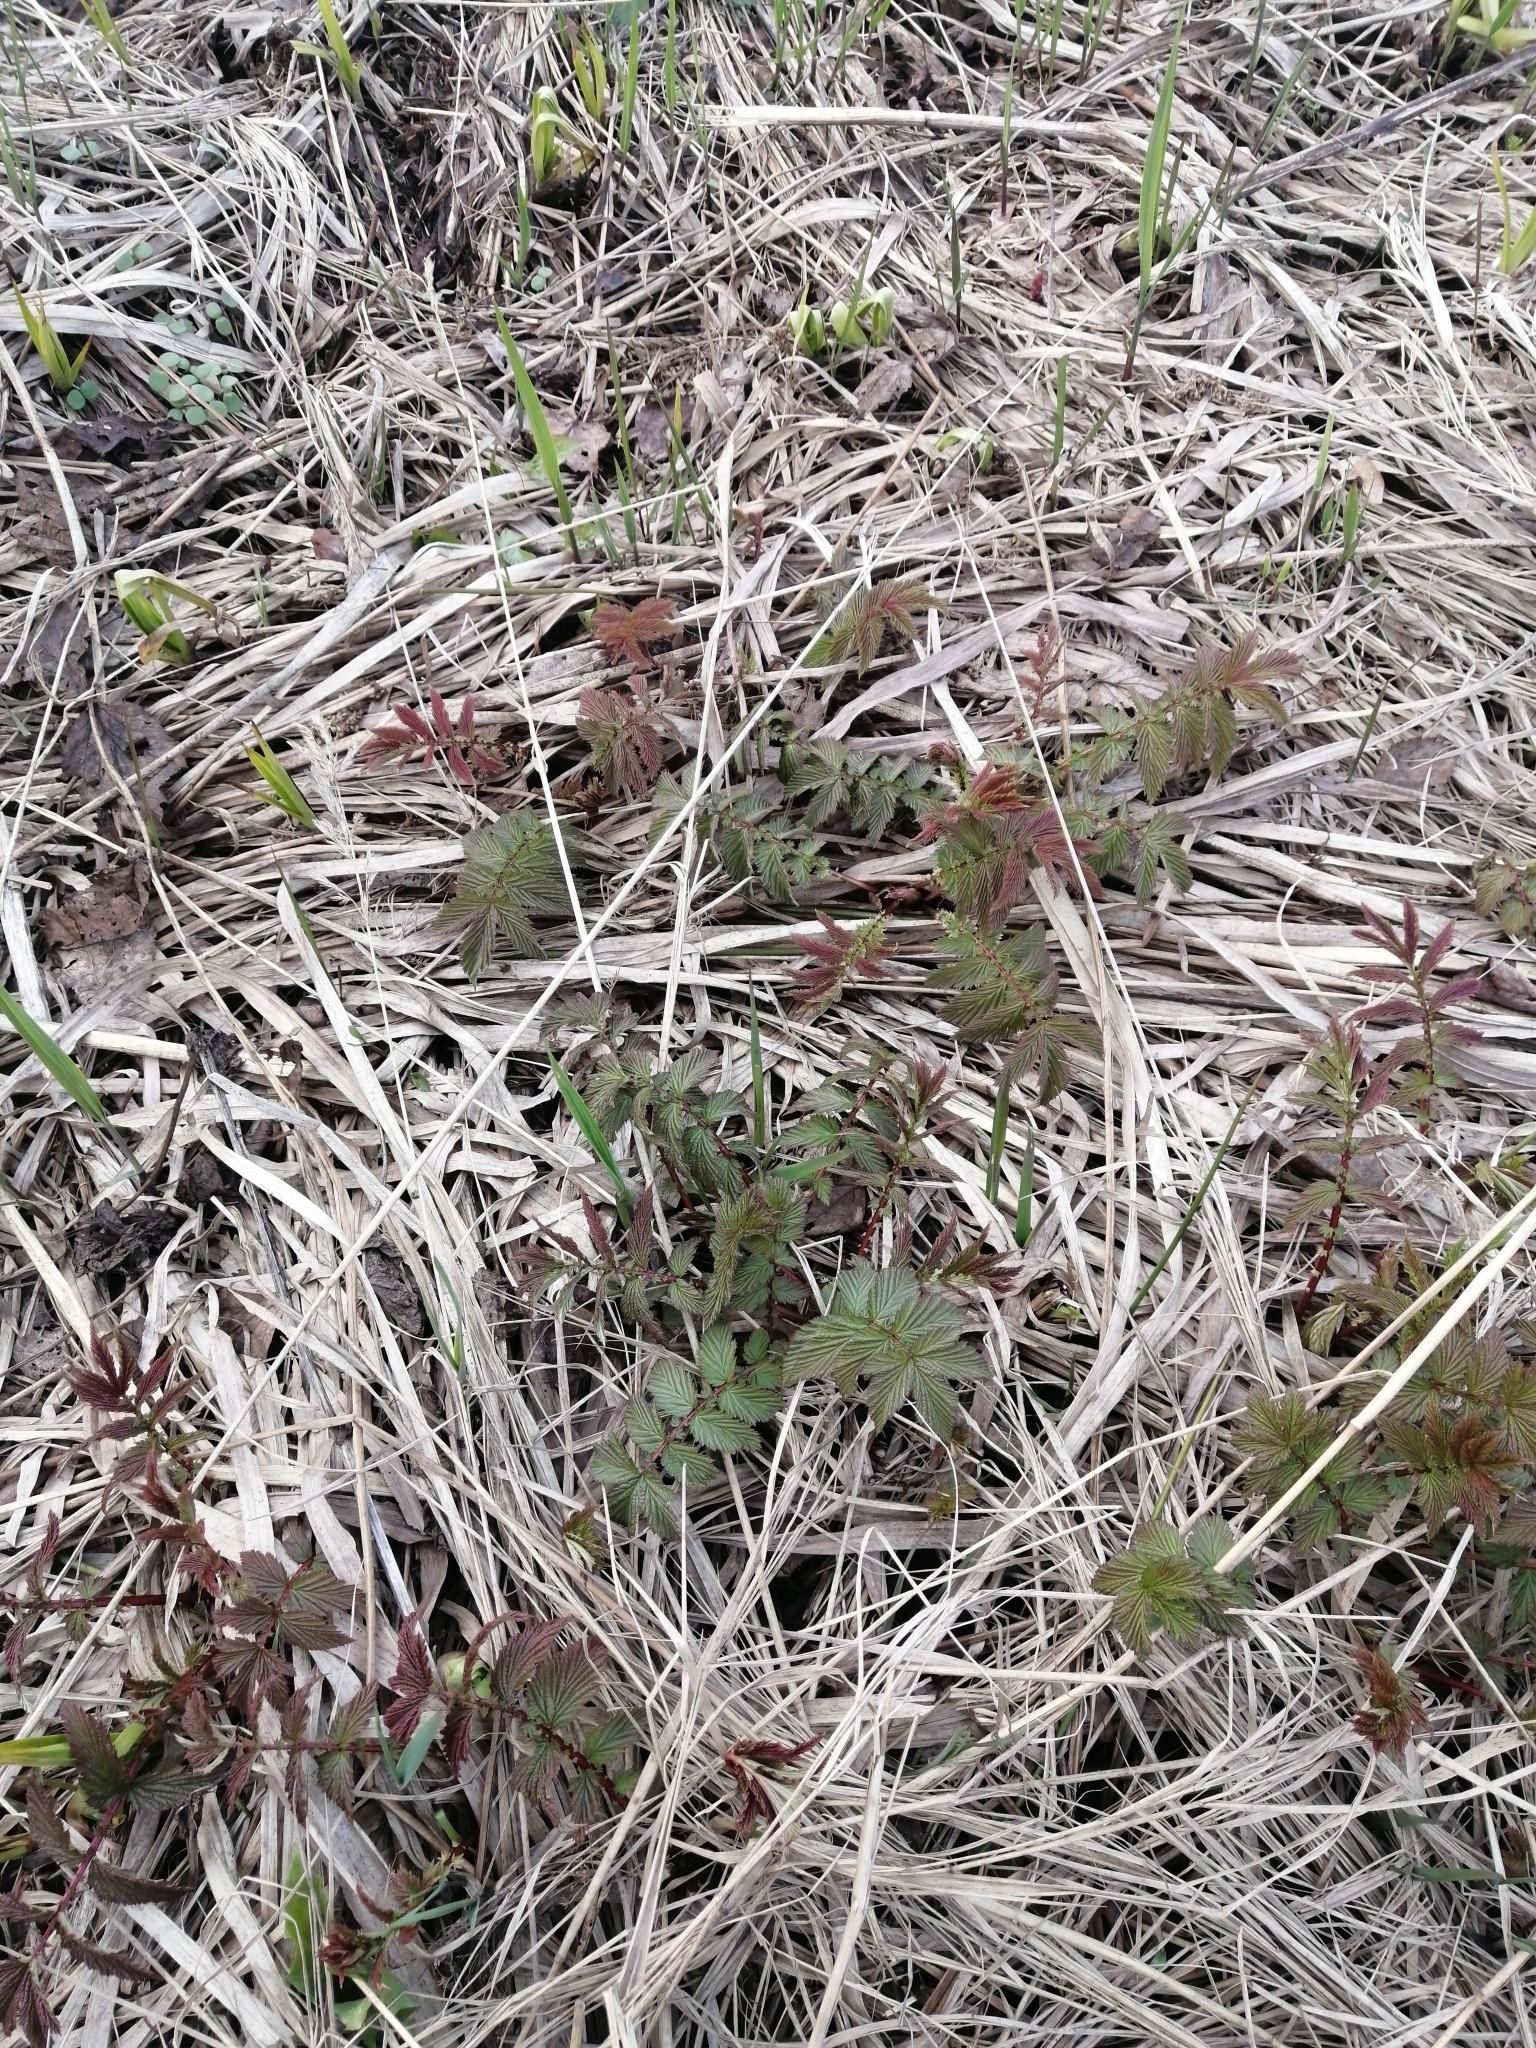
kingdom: Plantae
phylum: Tracheophyta
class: Magnoliopsida
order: Rosales
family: Rosaceae
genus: Filipendula
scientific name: Filipendula ulmaria
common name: Meadowsweet
